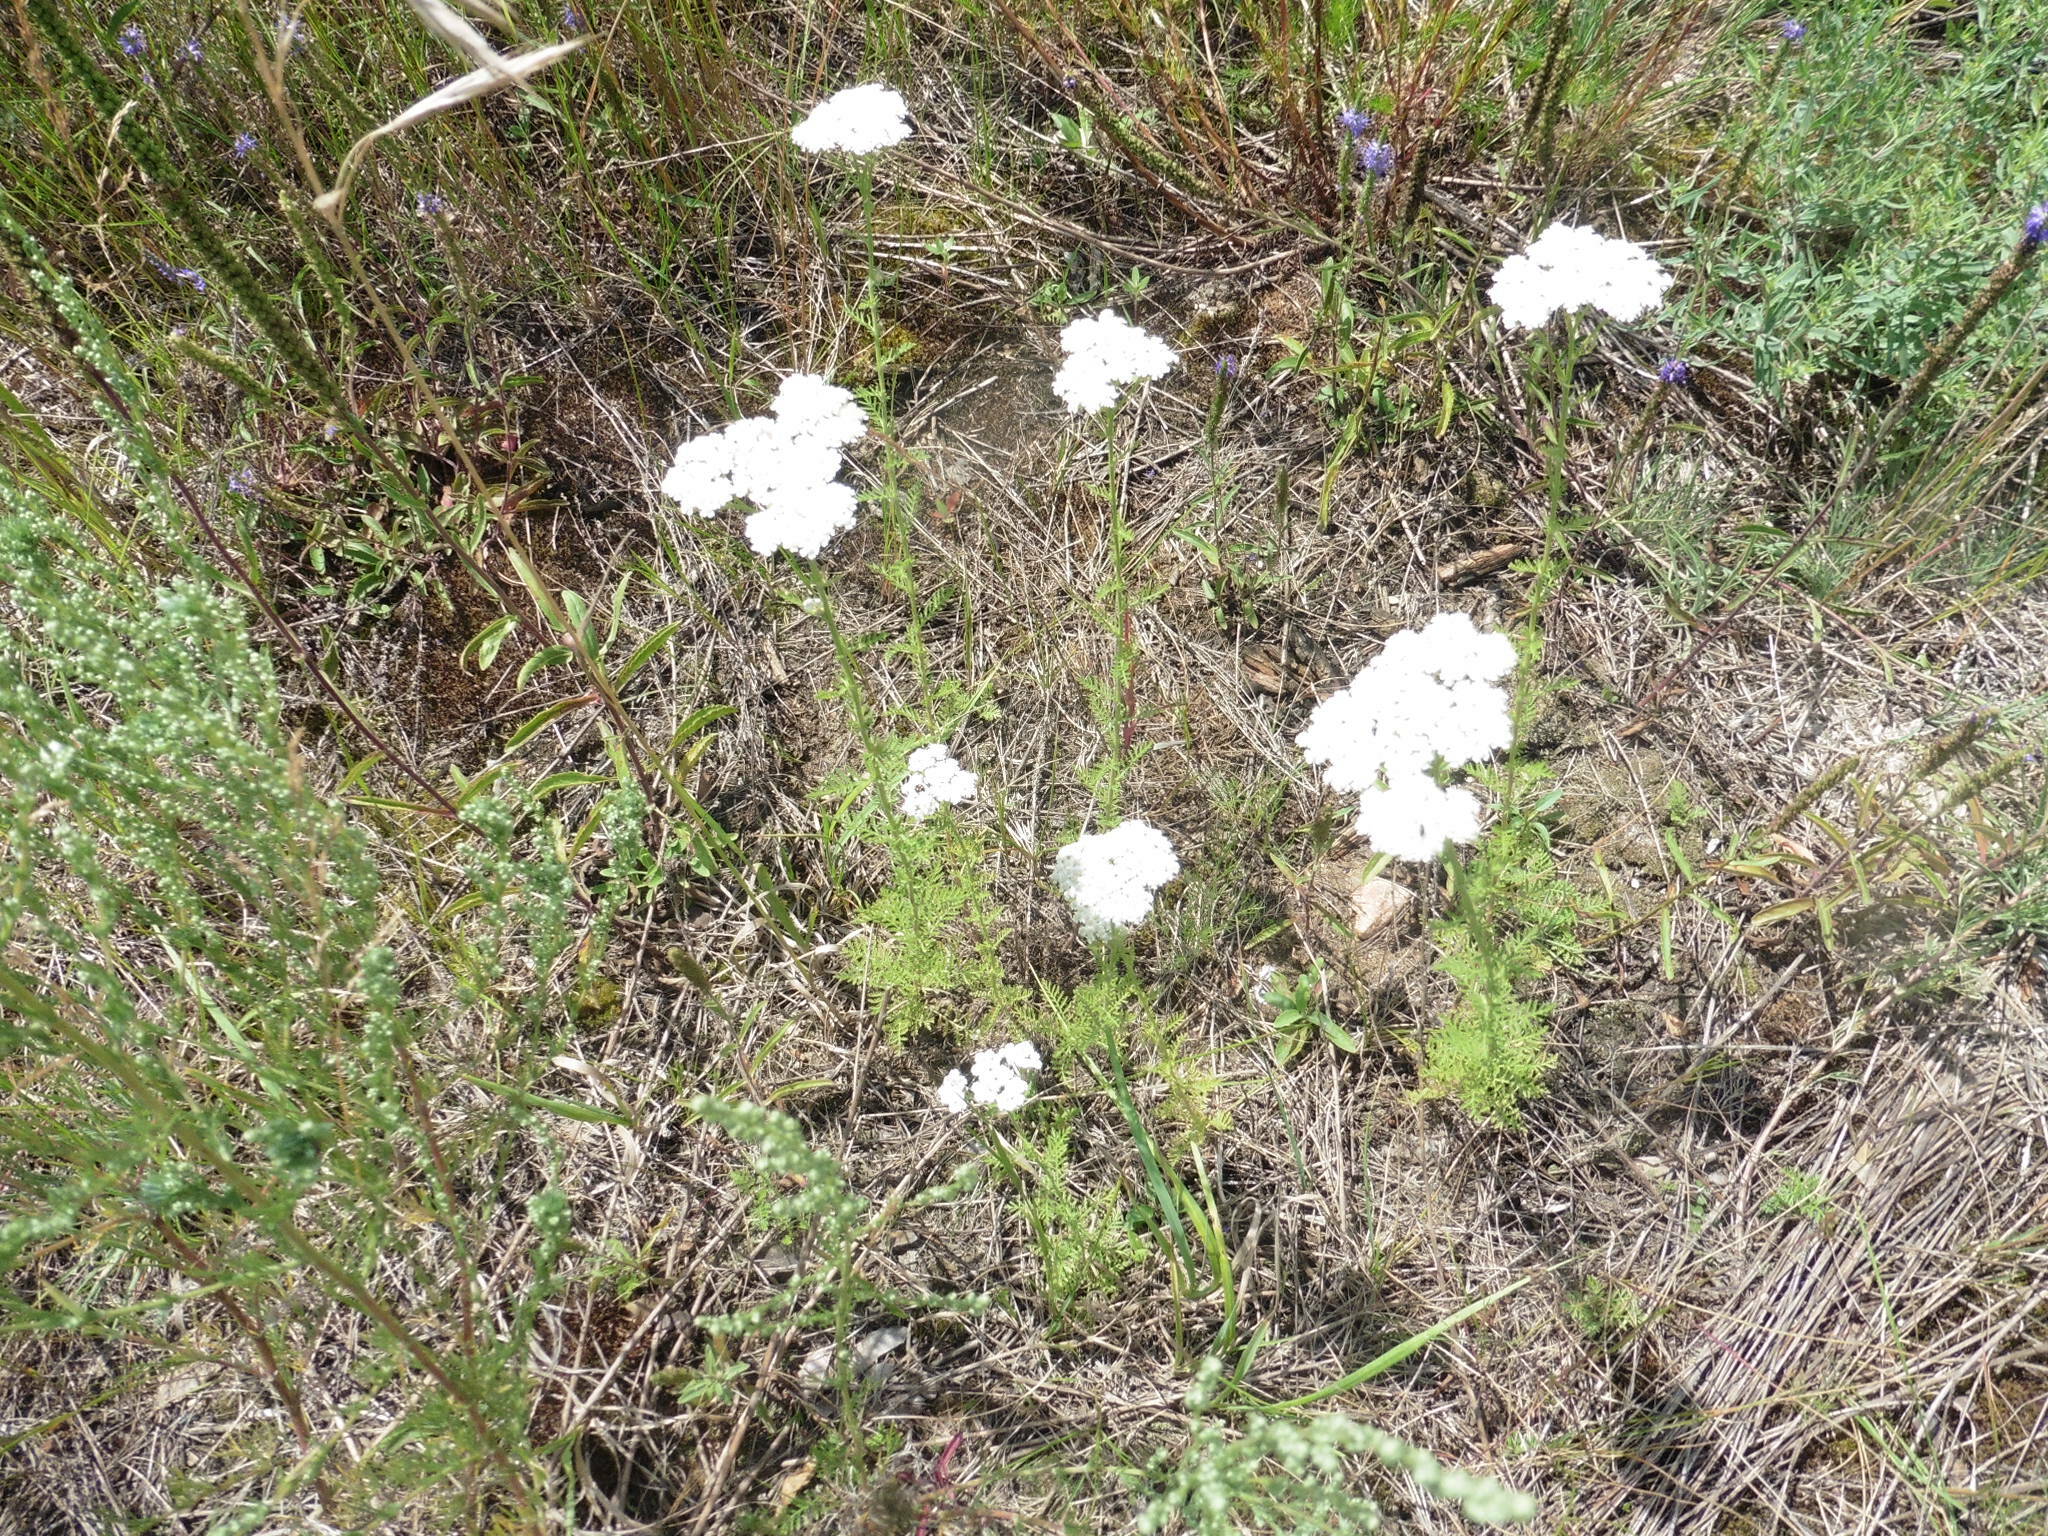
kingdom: Plantae
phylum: Tracheophyta
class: Magnoliopsida
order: Asterales
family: Asteraceae
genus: Achillea
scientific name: Achillea nobilis
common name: Noble yarrow
